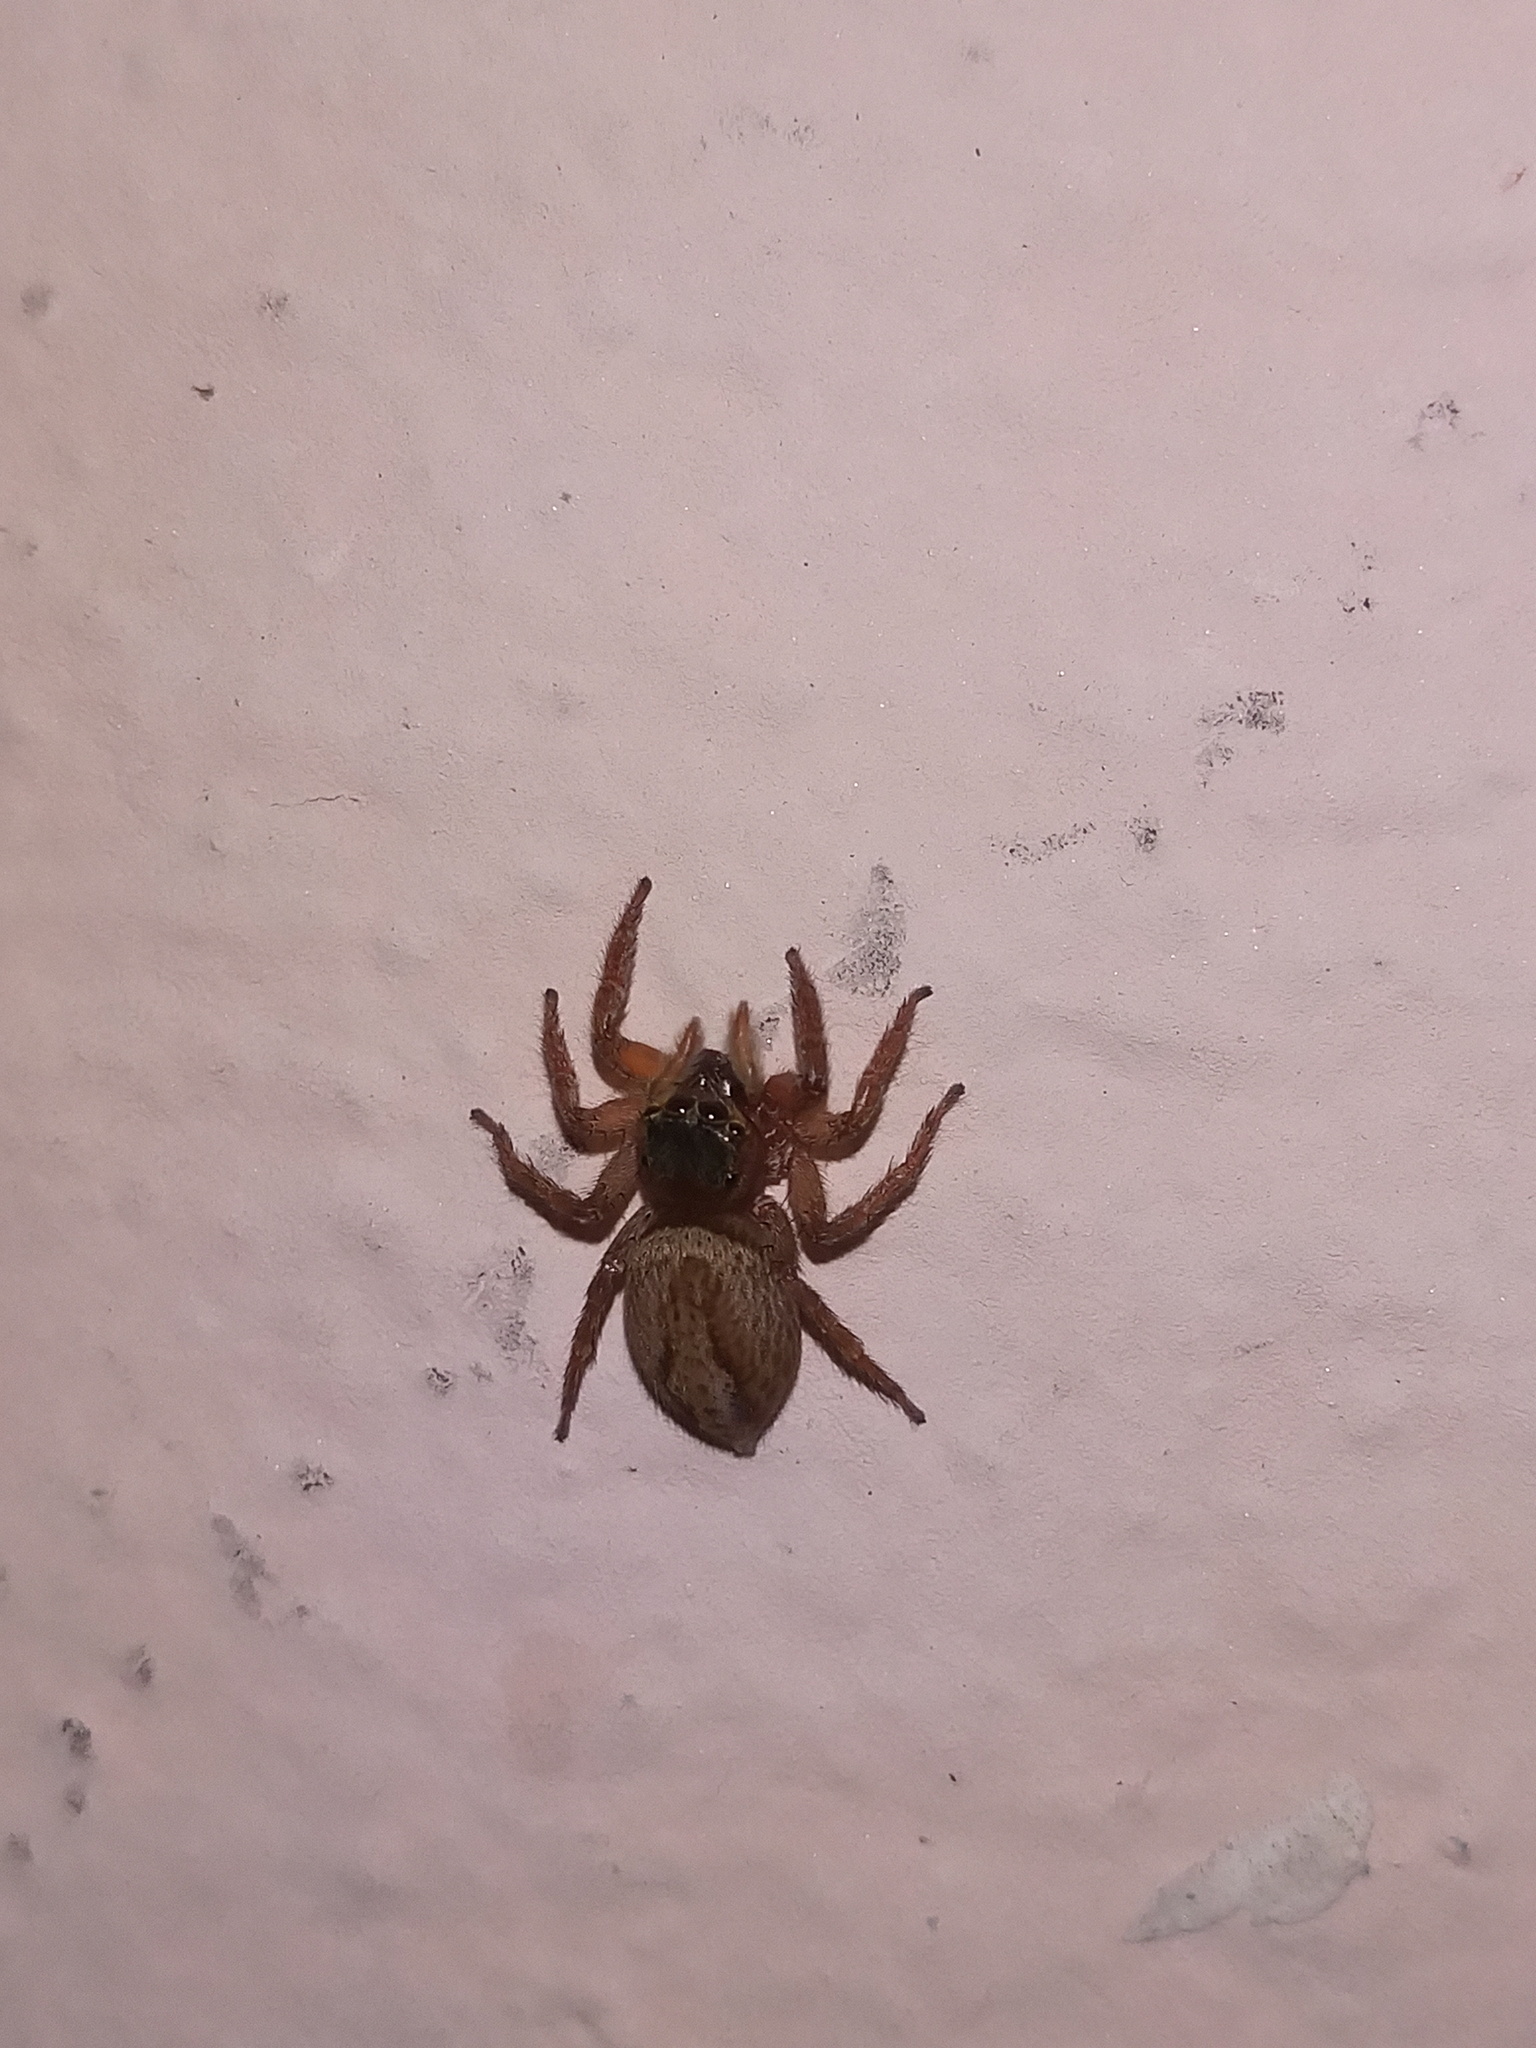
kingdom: Animalia
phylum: Arthropoda
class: Arachnida
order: Araneae
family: Salticidae
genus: Hasarius
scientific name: Hasarius adansoni
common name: Jumping spider
